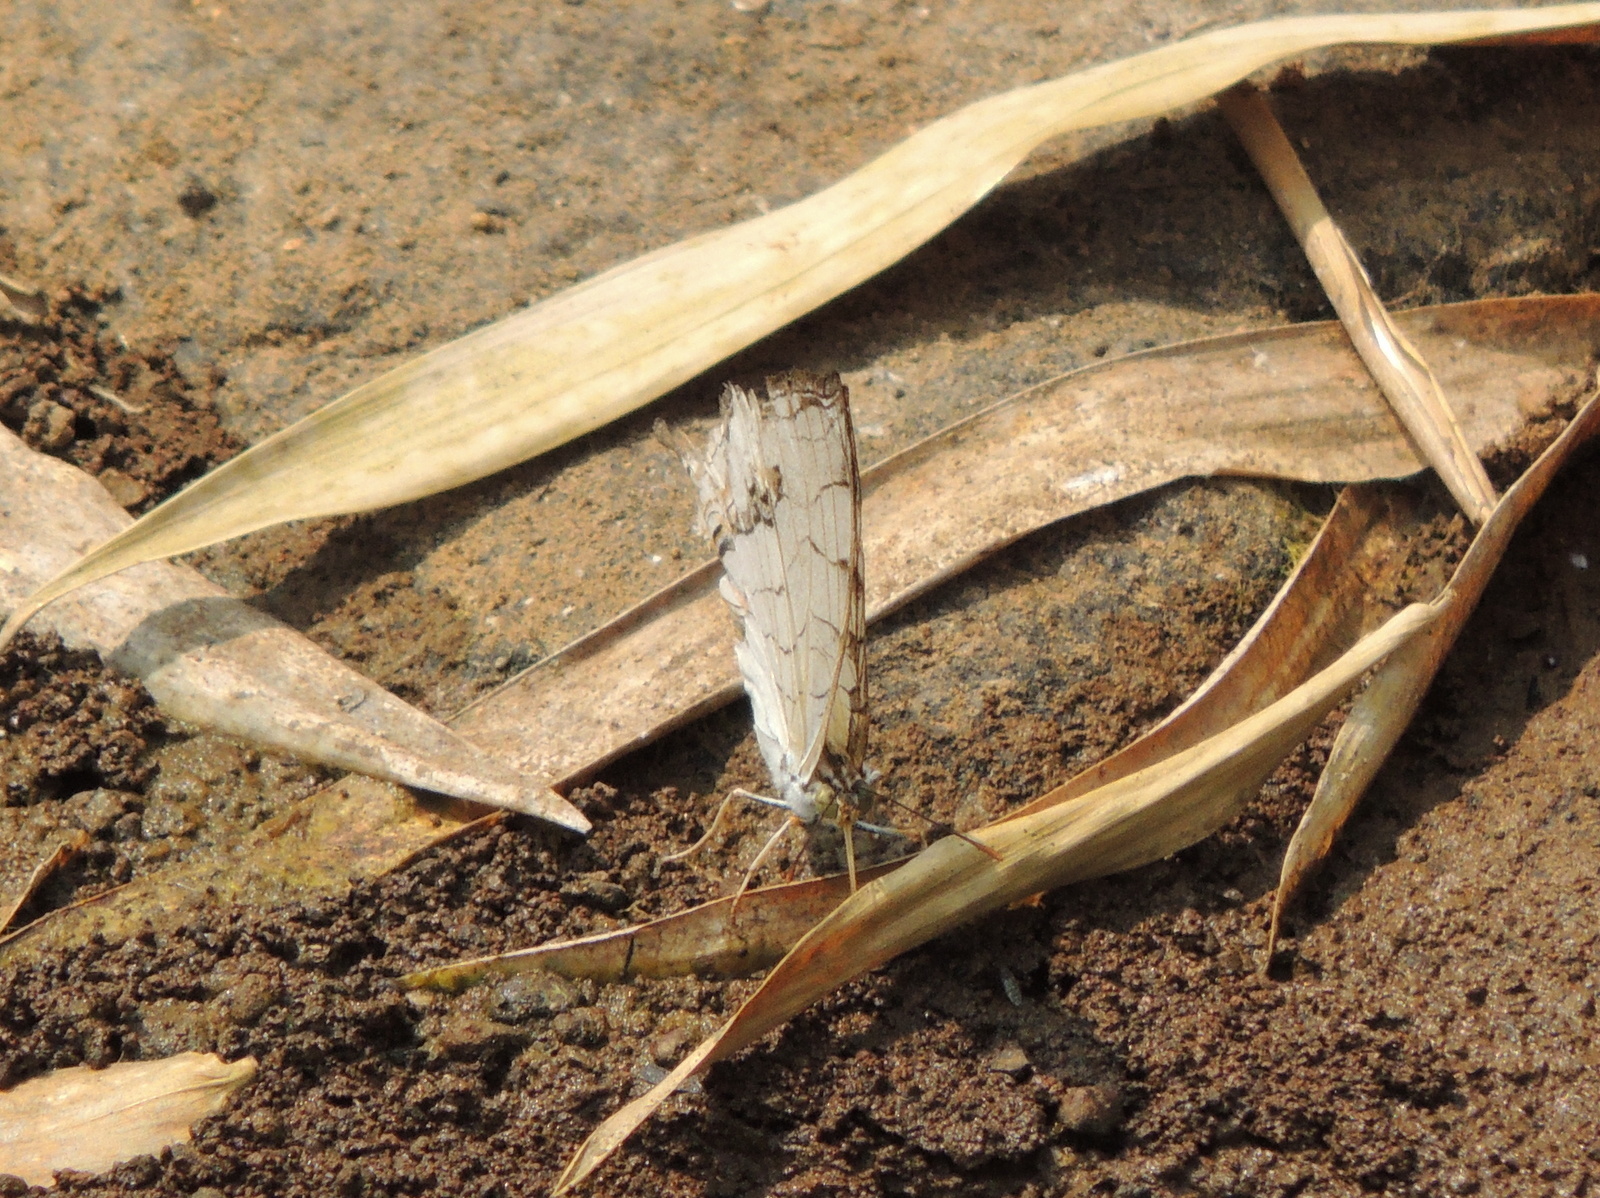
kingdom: Animalia
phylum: Arthropoda
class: Insecta
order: Lepidoptera
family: Nymphalidae
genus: Cyrestis
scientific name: Cyrestis thyodamas
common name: Common mapwing
